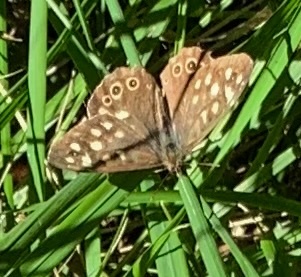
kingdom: Animalia
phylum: Arthropoda
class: Insecta
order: Lepidoptera
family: Nymphalidae
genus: Pararge
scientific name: Pararge aegeria
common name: Speckled wood
